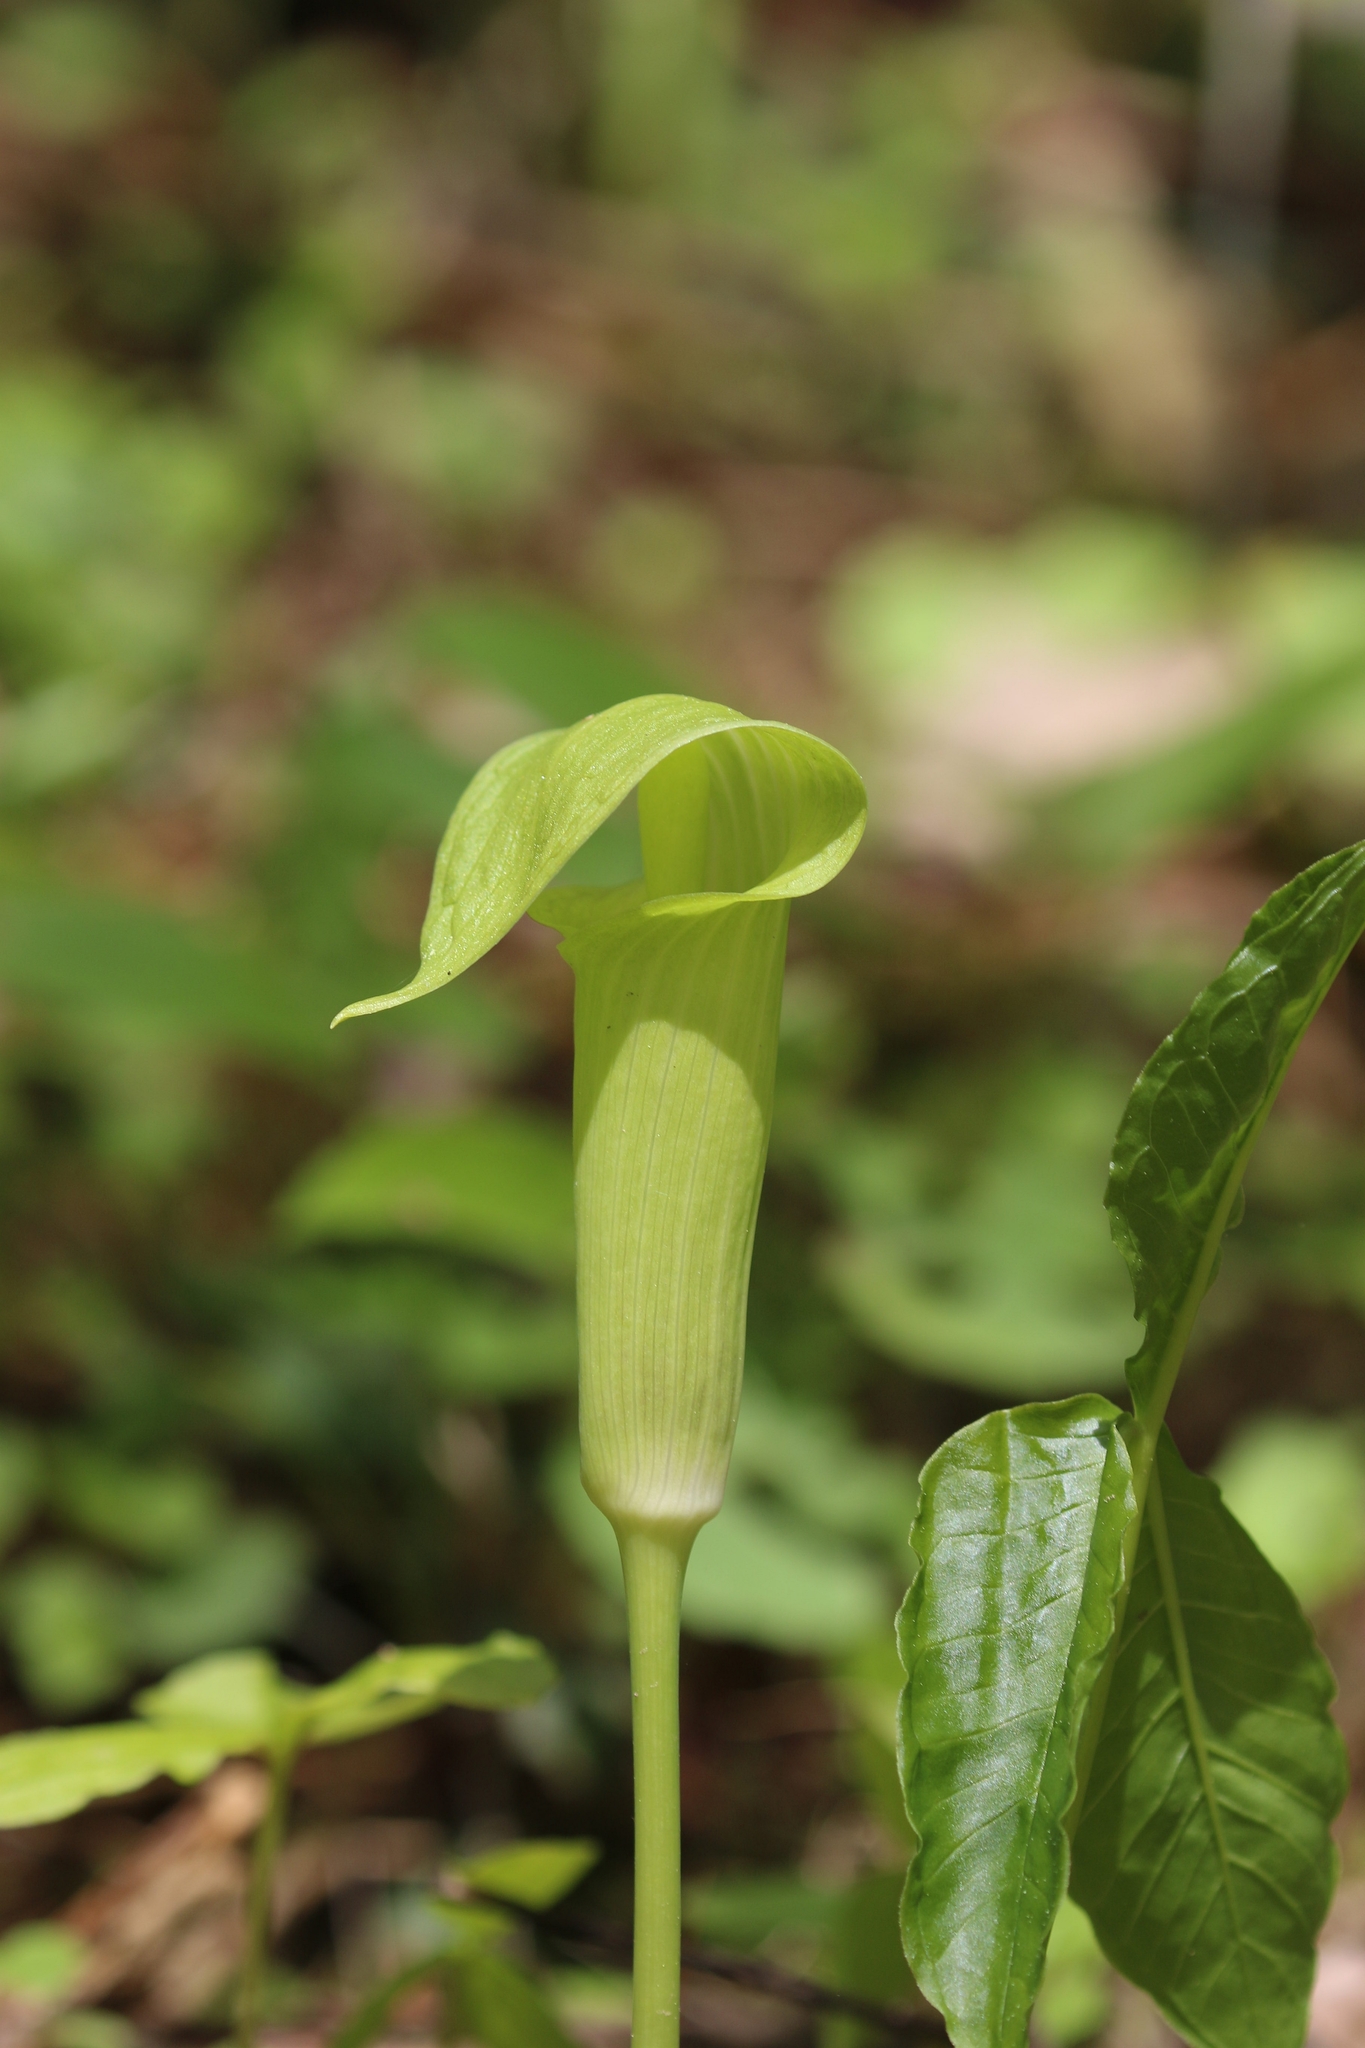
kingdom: Plantae
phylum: Tracheophyta
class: Liliopsida
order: Alismatales
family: Araceae
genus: Arisaema
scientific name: Arisaema triphyllum
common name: Jack-in-the-pulpit
